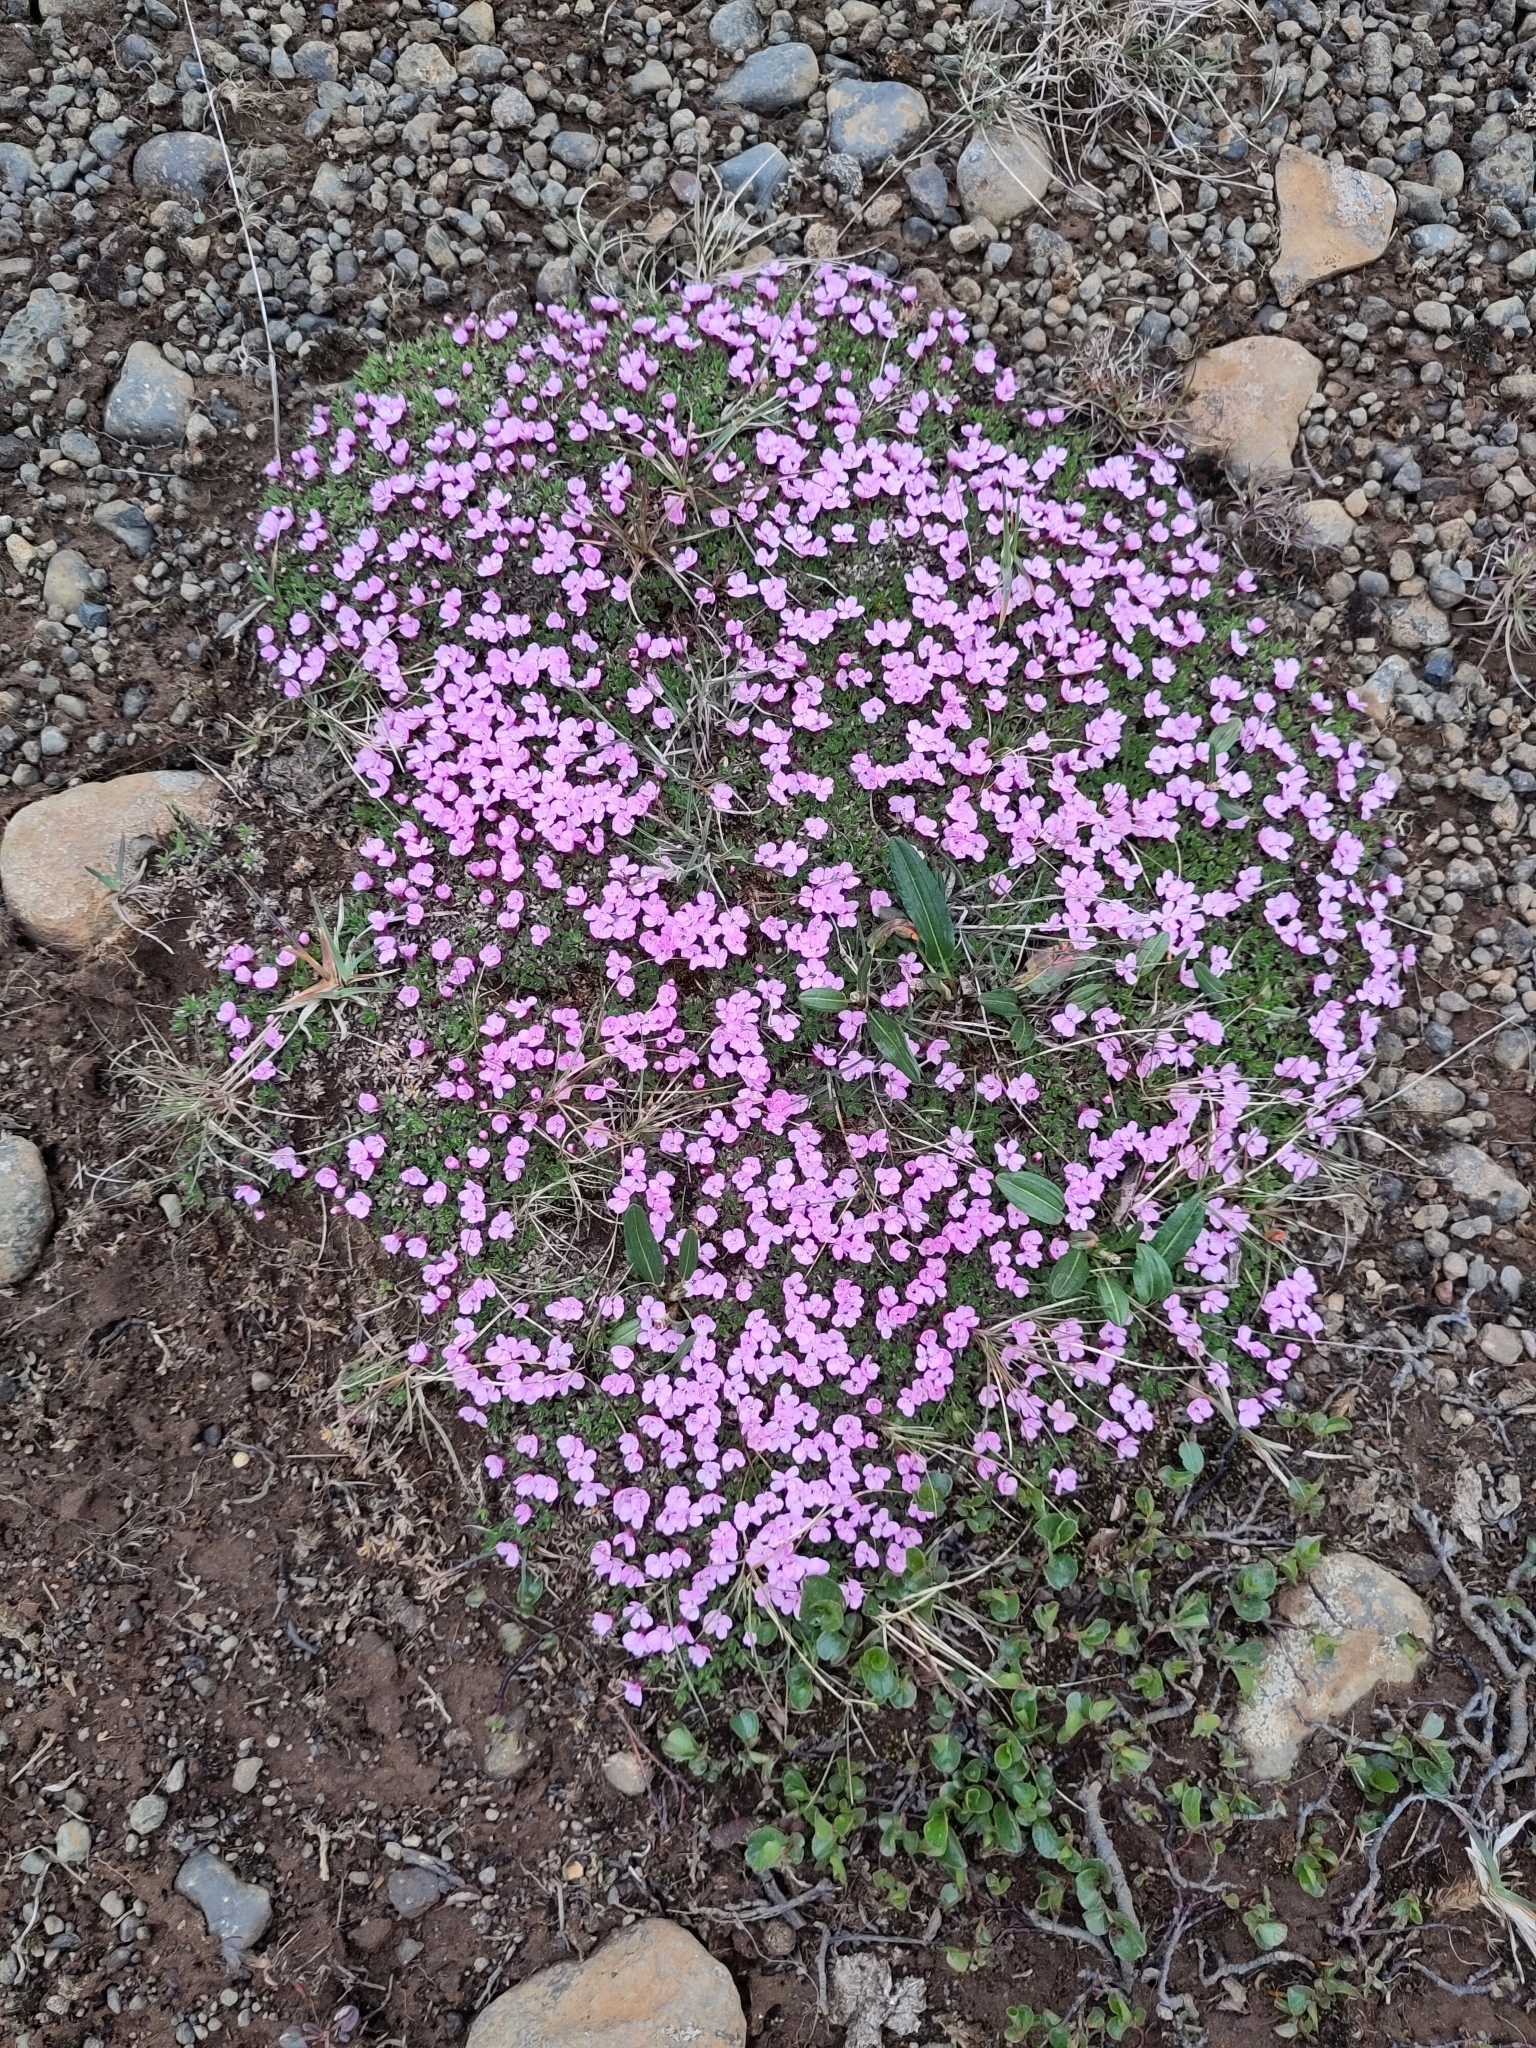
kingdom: Plantae
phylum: Tracheophyta
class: Magnoliopsida
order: Caryophyllales
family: Caryophyllaceae
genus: Silene
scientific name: Silene acaulis
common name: Moss campion
